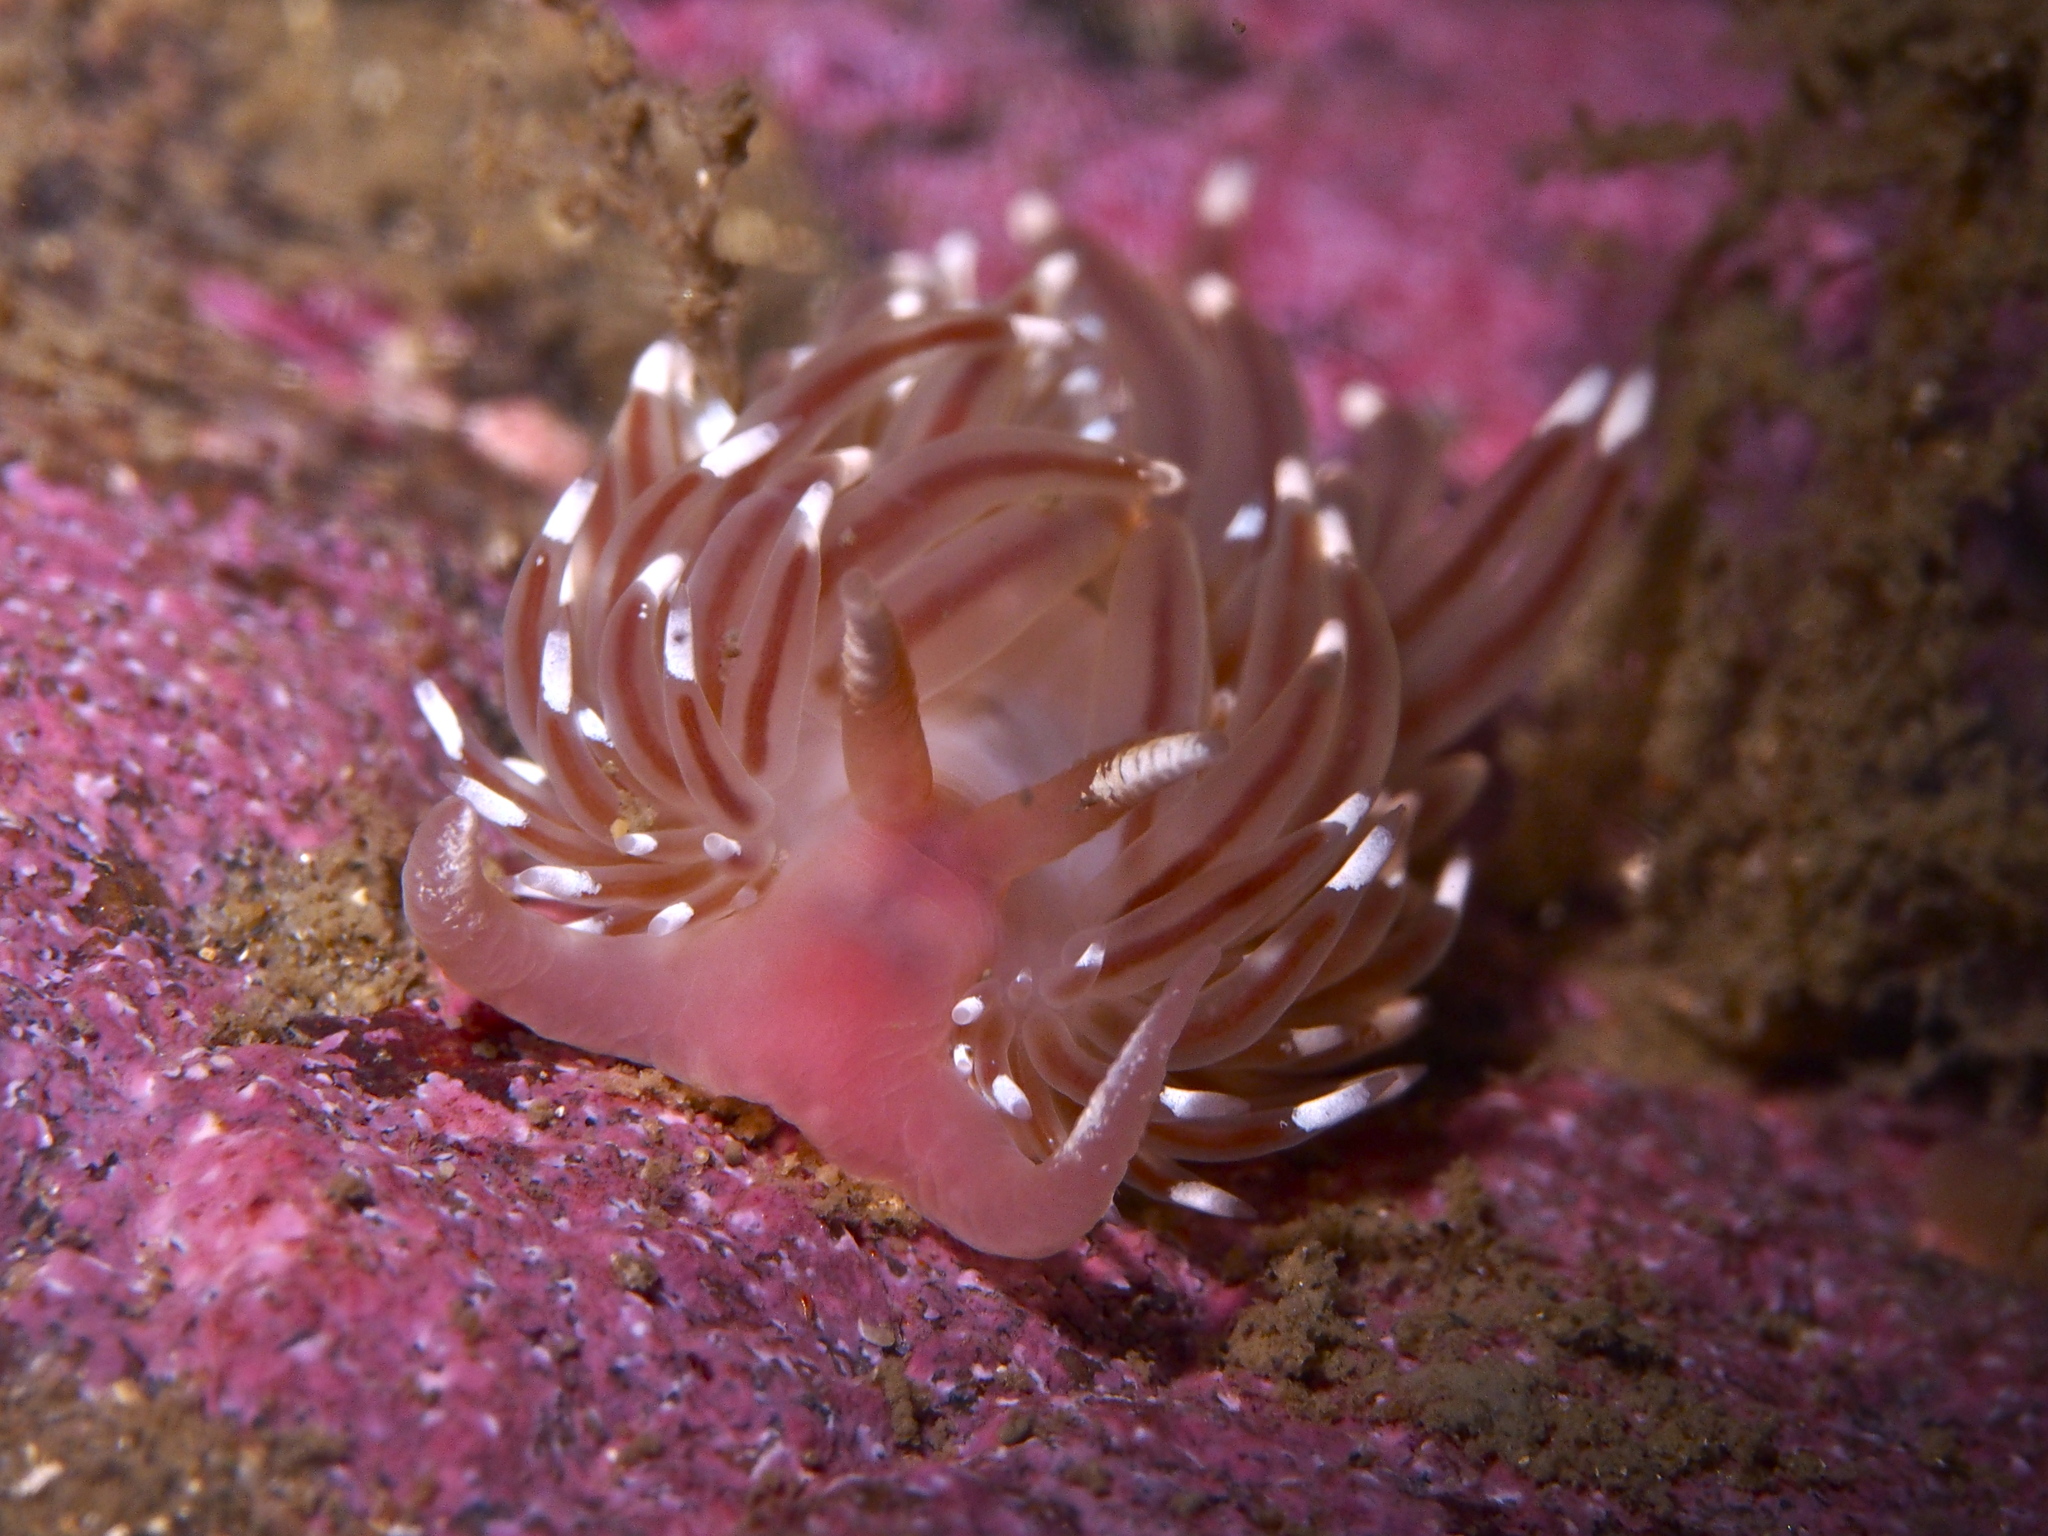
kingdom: Animalia
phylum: Mollusca
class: Gastropoda
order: Nudibranchia
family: Facelinidae
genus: Facelina
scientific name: Facelina bostoniensis
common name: Boston facelina
